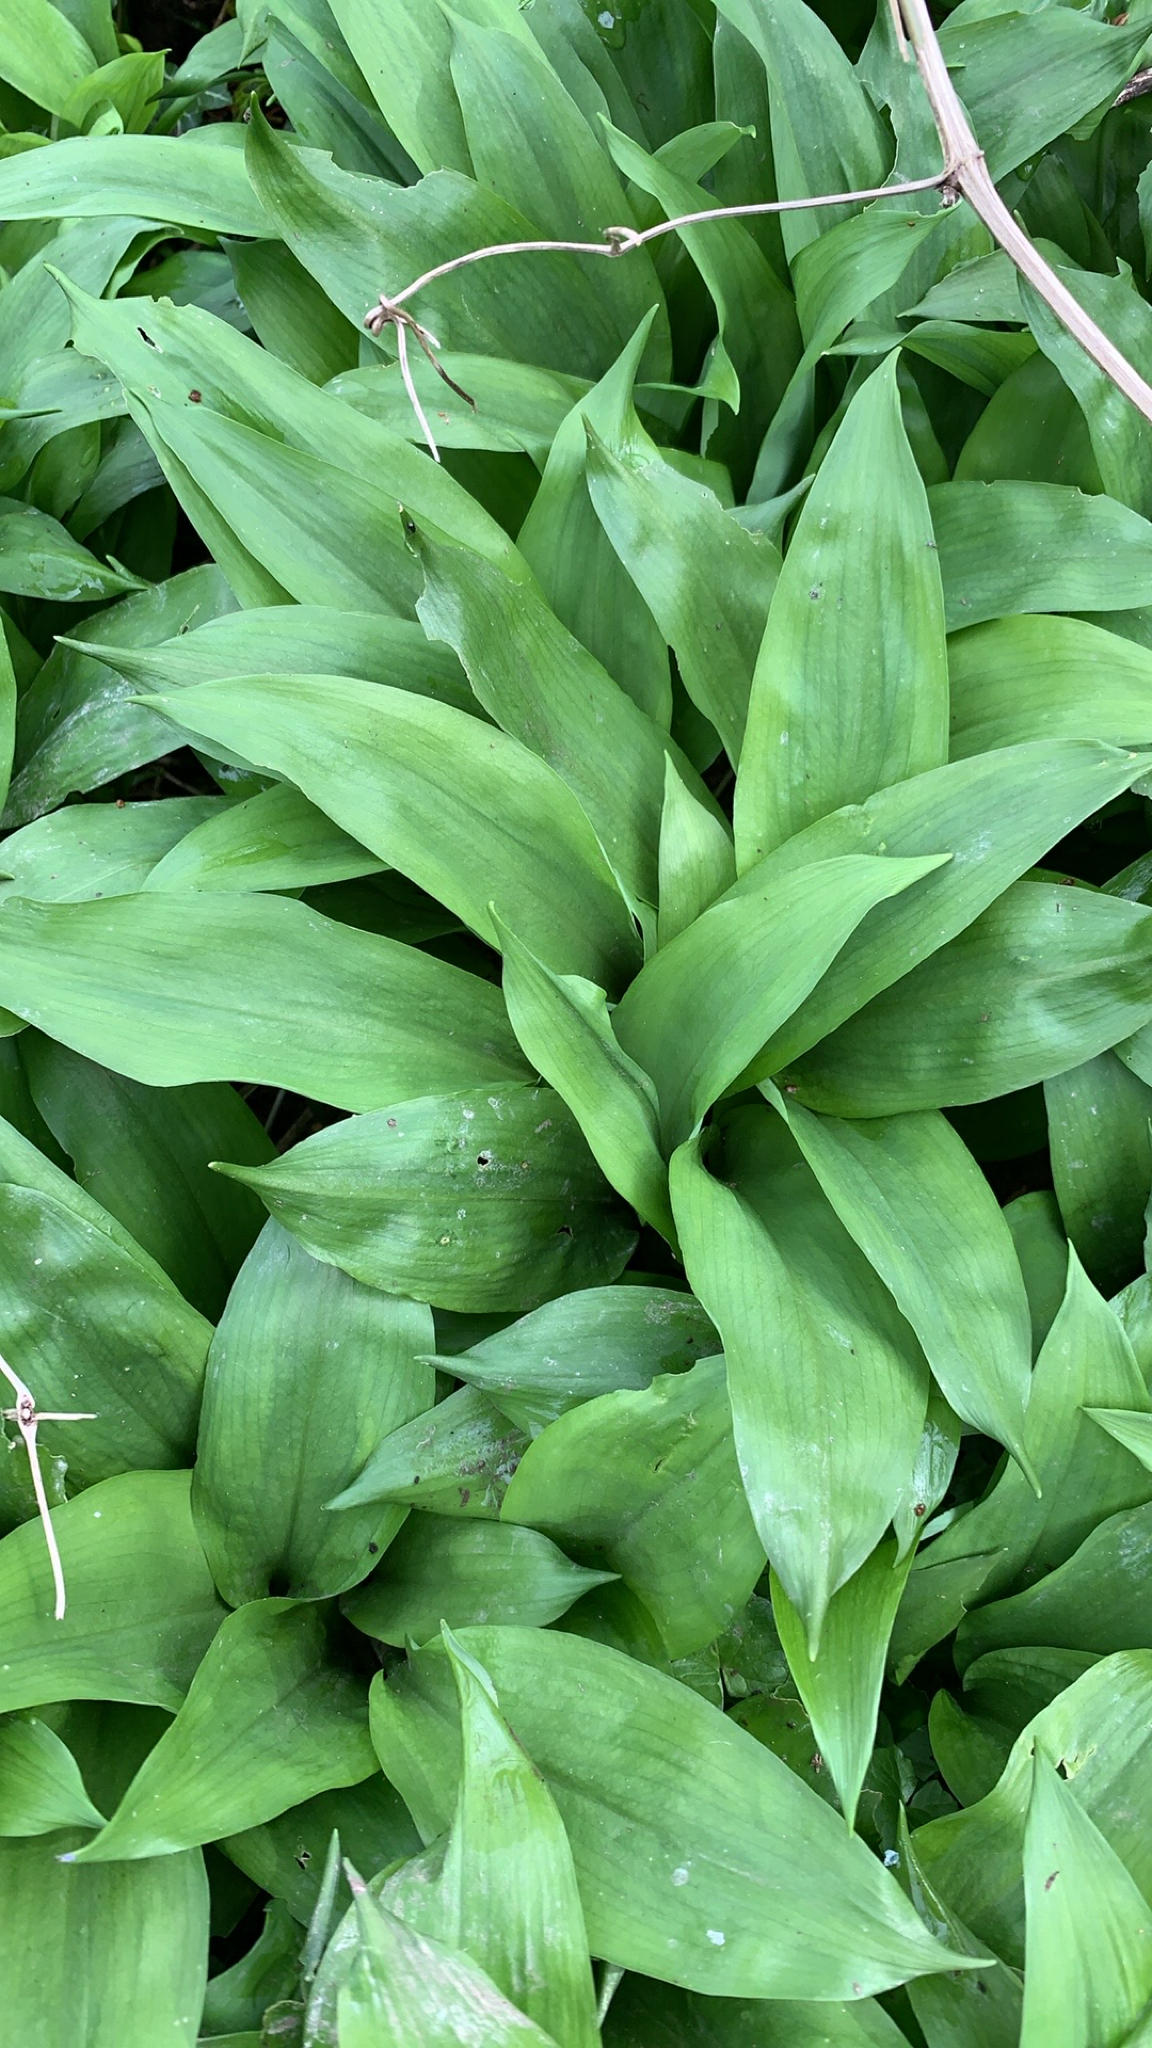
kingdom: Plantae
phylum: Tracheophyta
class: Liliopsida
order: Asparagales
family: Amaryllidaceae
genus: Allium
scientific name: Allium ursinum
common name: Ramsons
